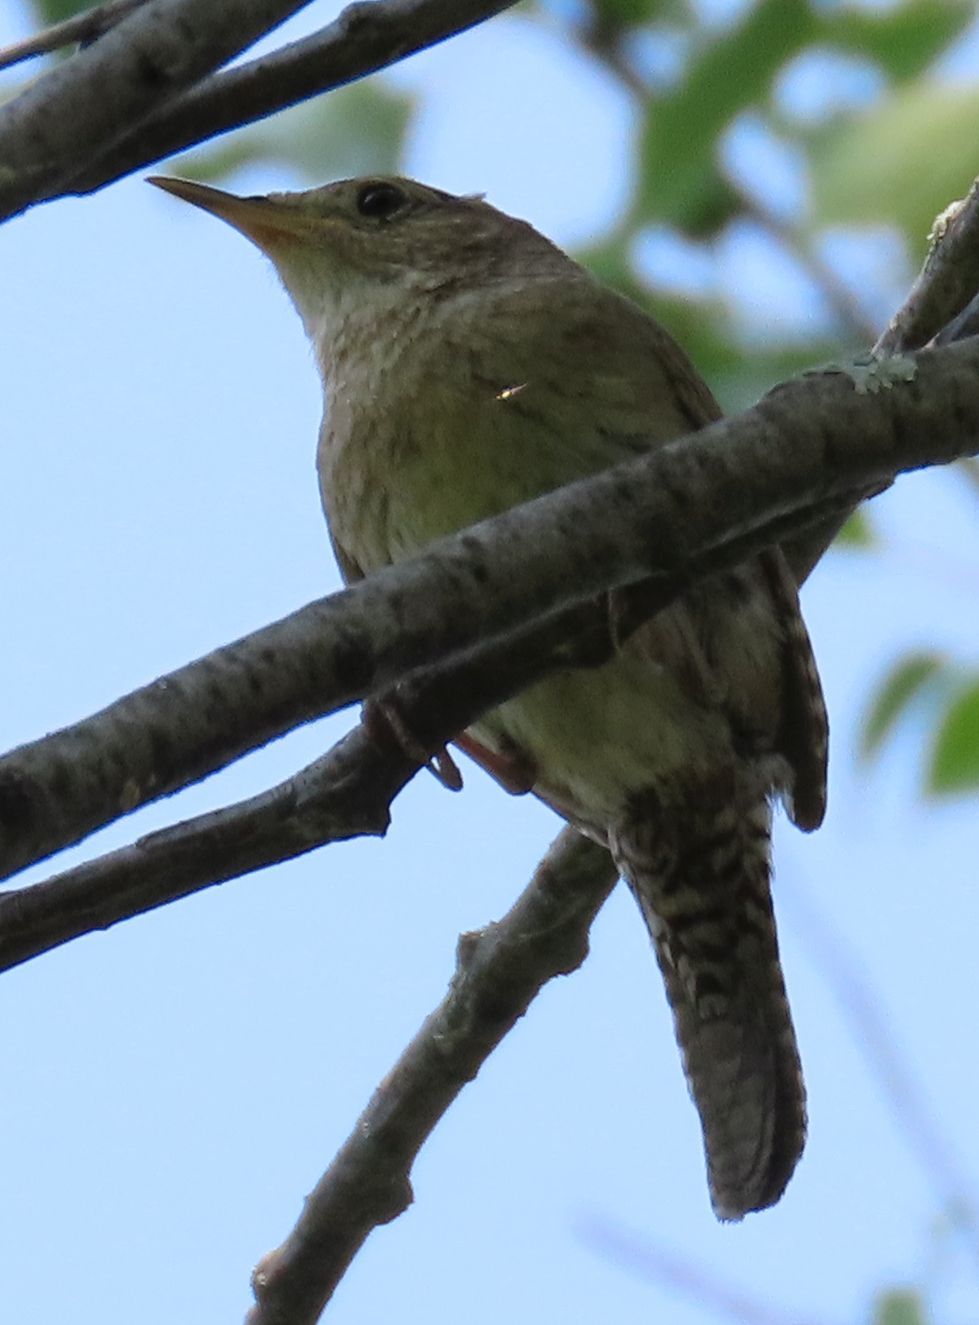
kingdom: Animalia
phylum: Chordata
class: Aves
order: Passeriformes
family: Troglodytidae
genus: Troglodytes
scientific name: Troglodytes aedon
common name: House wren
